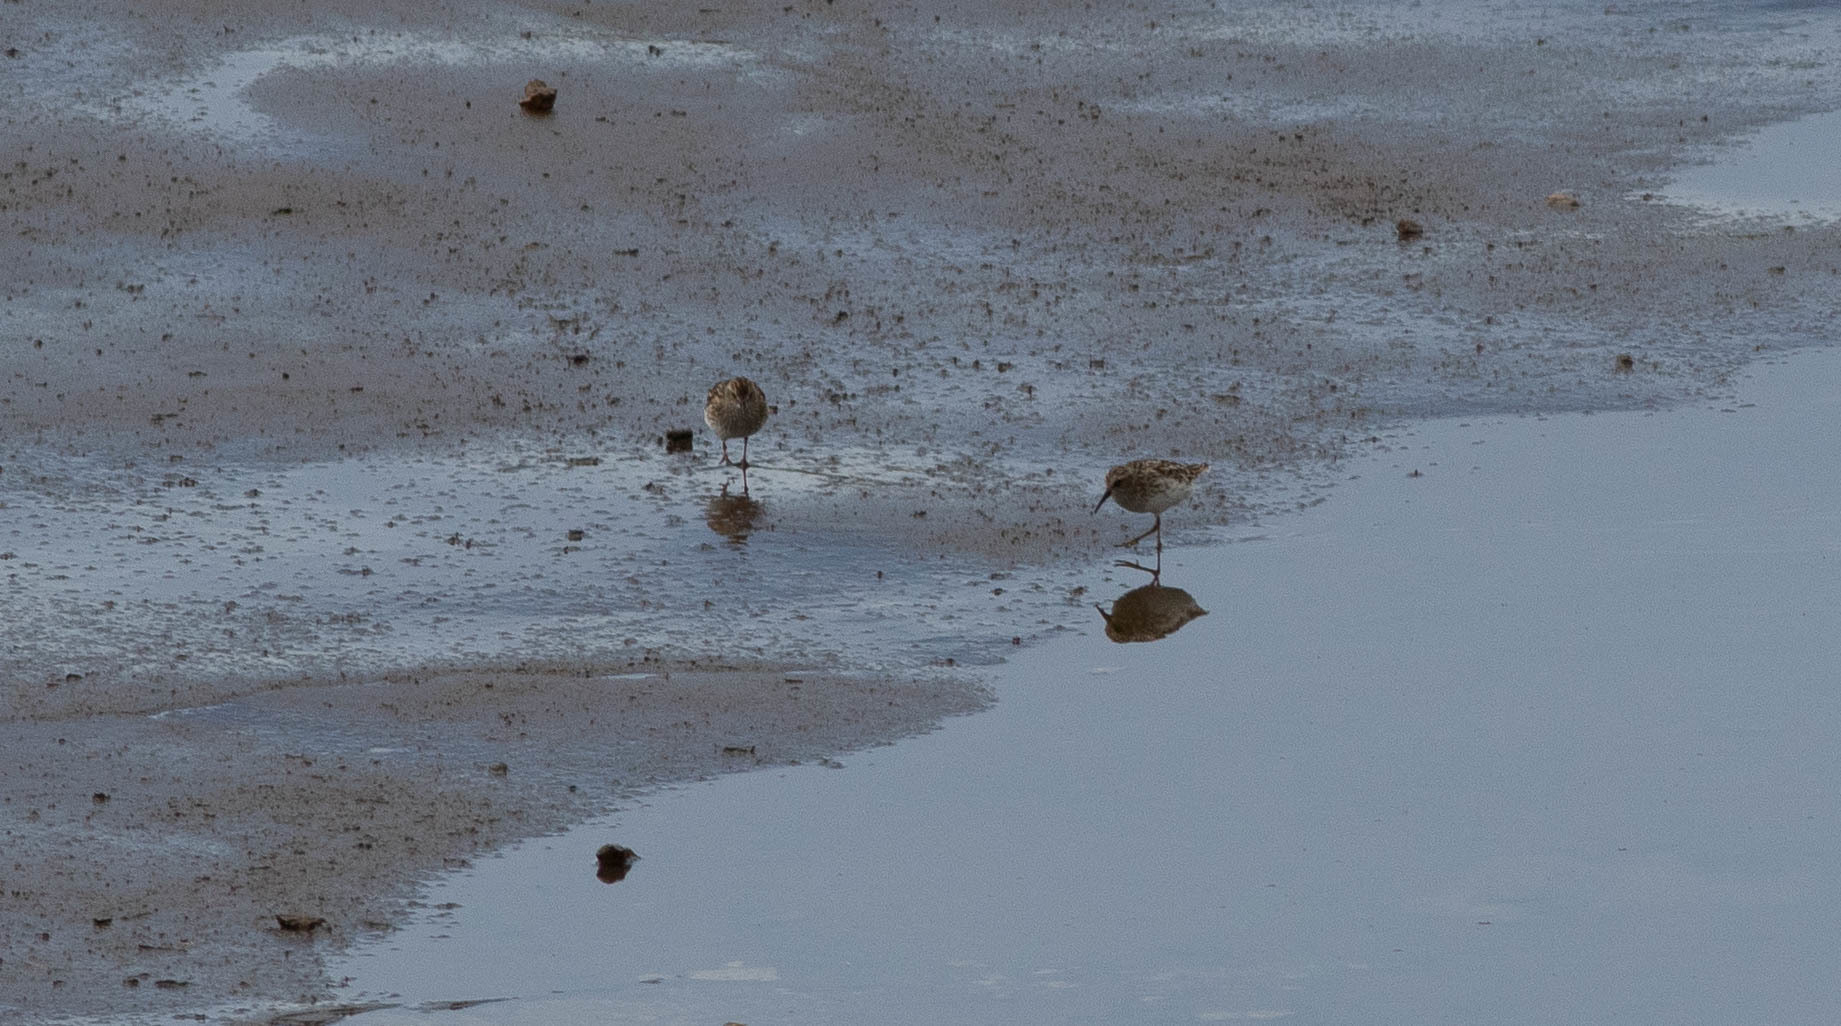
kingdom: Animalia
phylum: Chordata
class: Aves
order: Charadriiformes
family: Scolopacidae
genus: Calidris
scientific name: Calidris minutilla
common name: Least sandpiper
